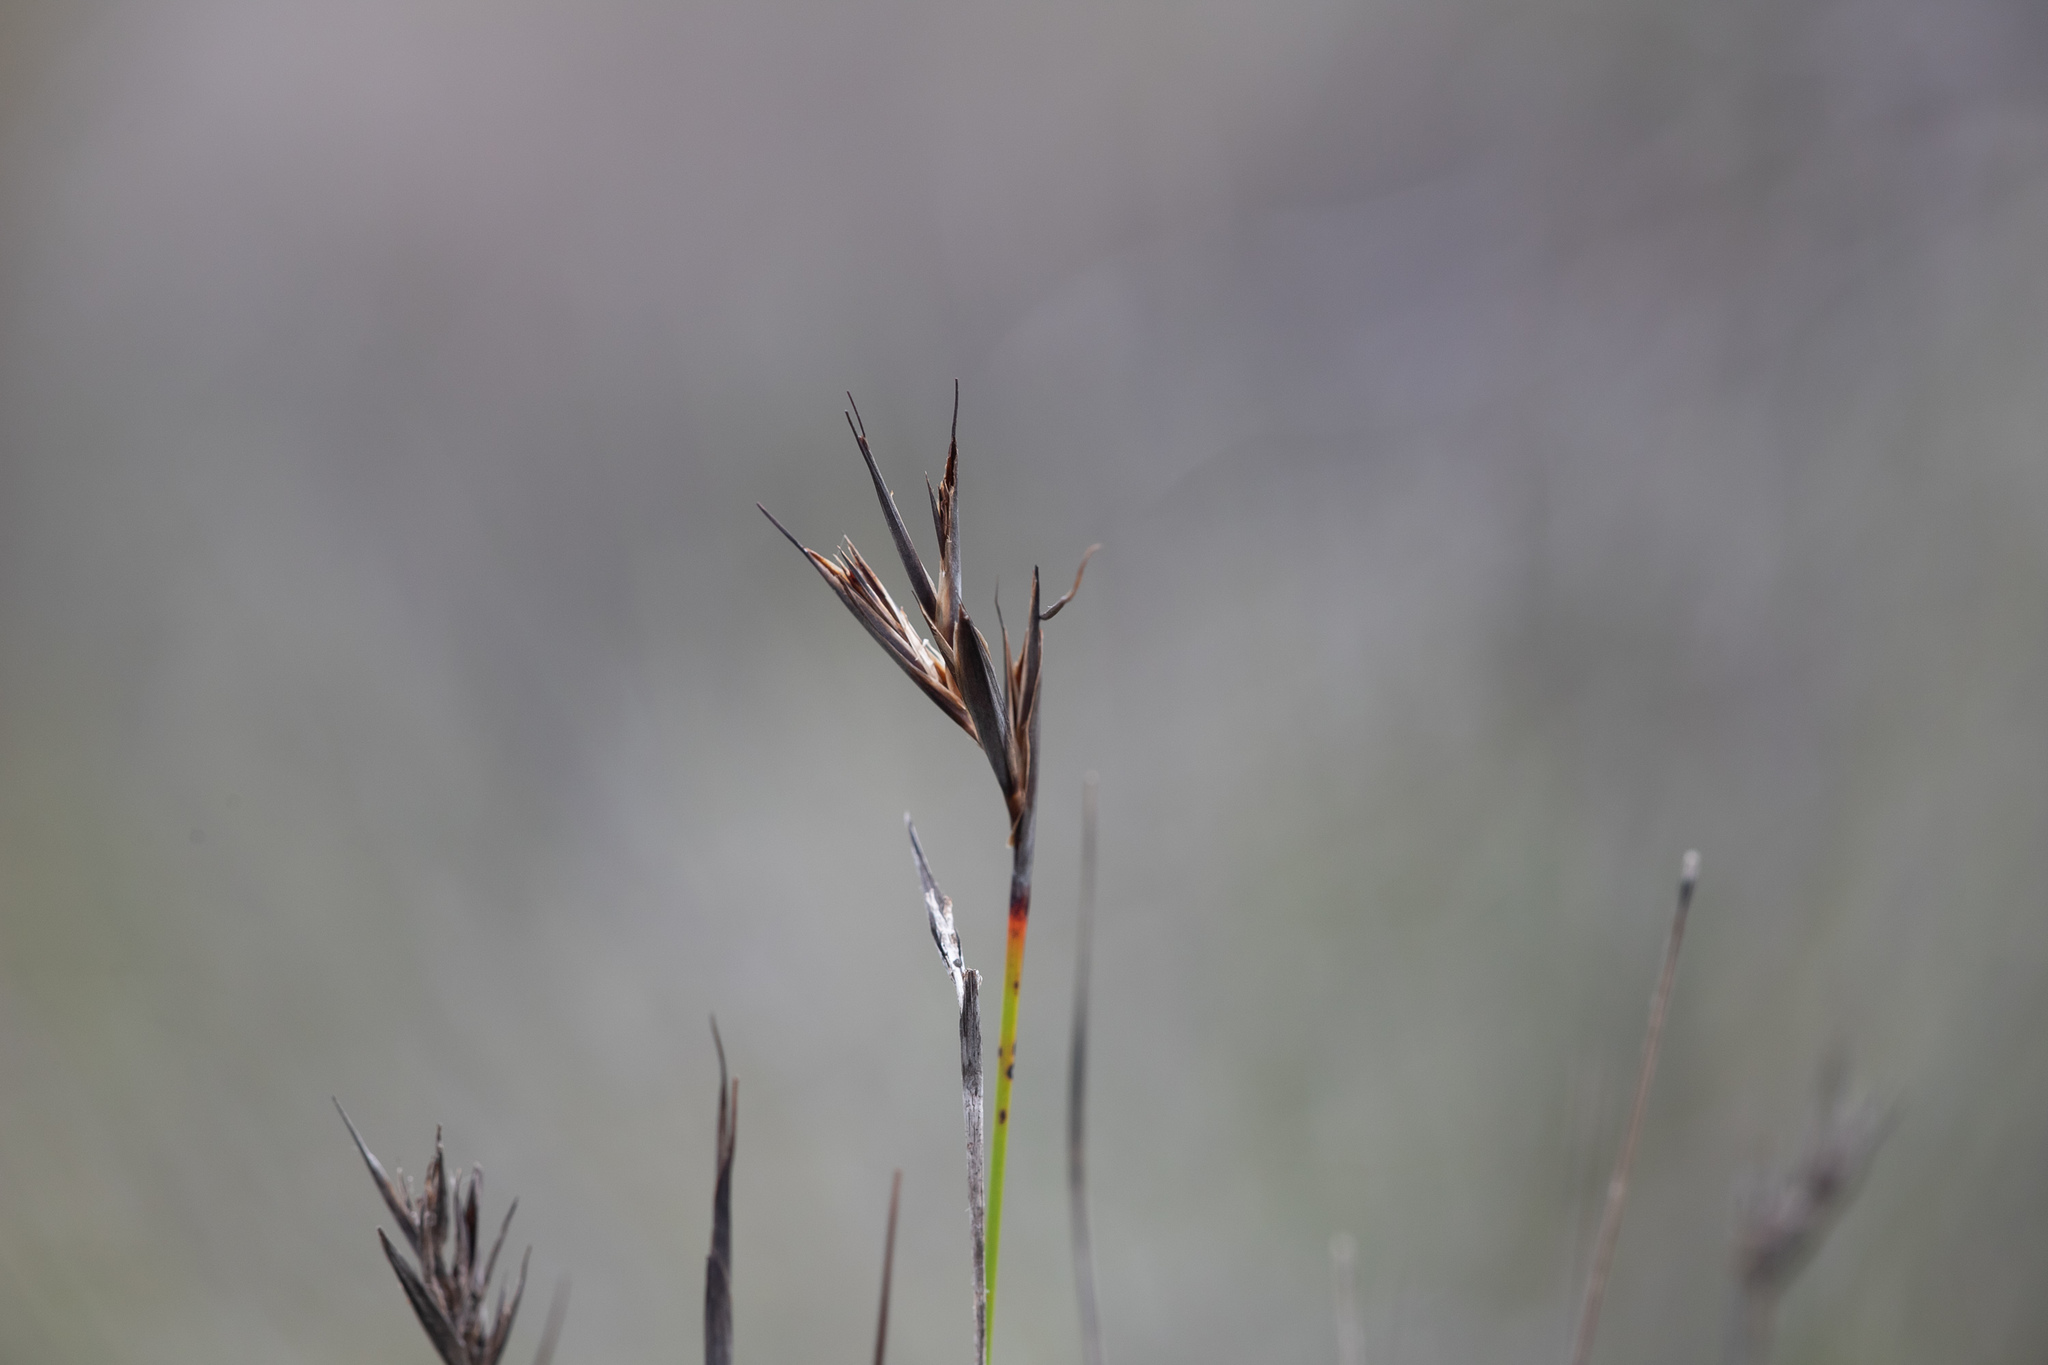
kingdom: Plantae
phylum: Tracheophyta
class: Liliopsida
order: Poales
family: Cyperaceae
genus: Lepidosperma
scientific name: Lepidosperma carphoides
